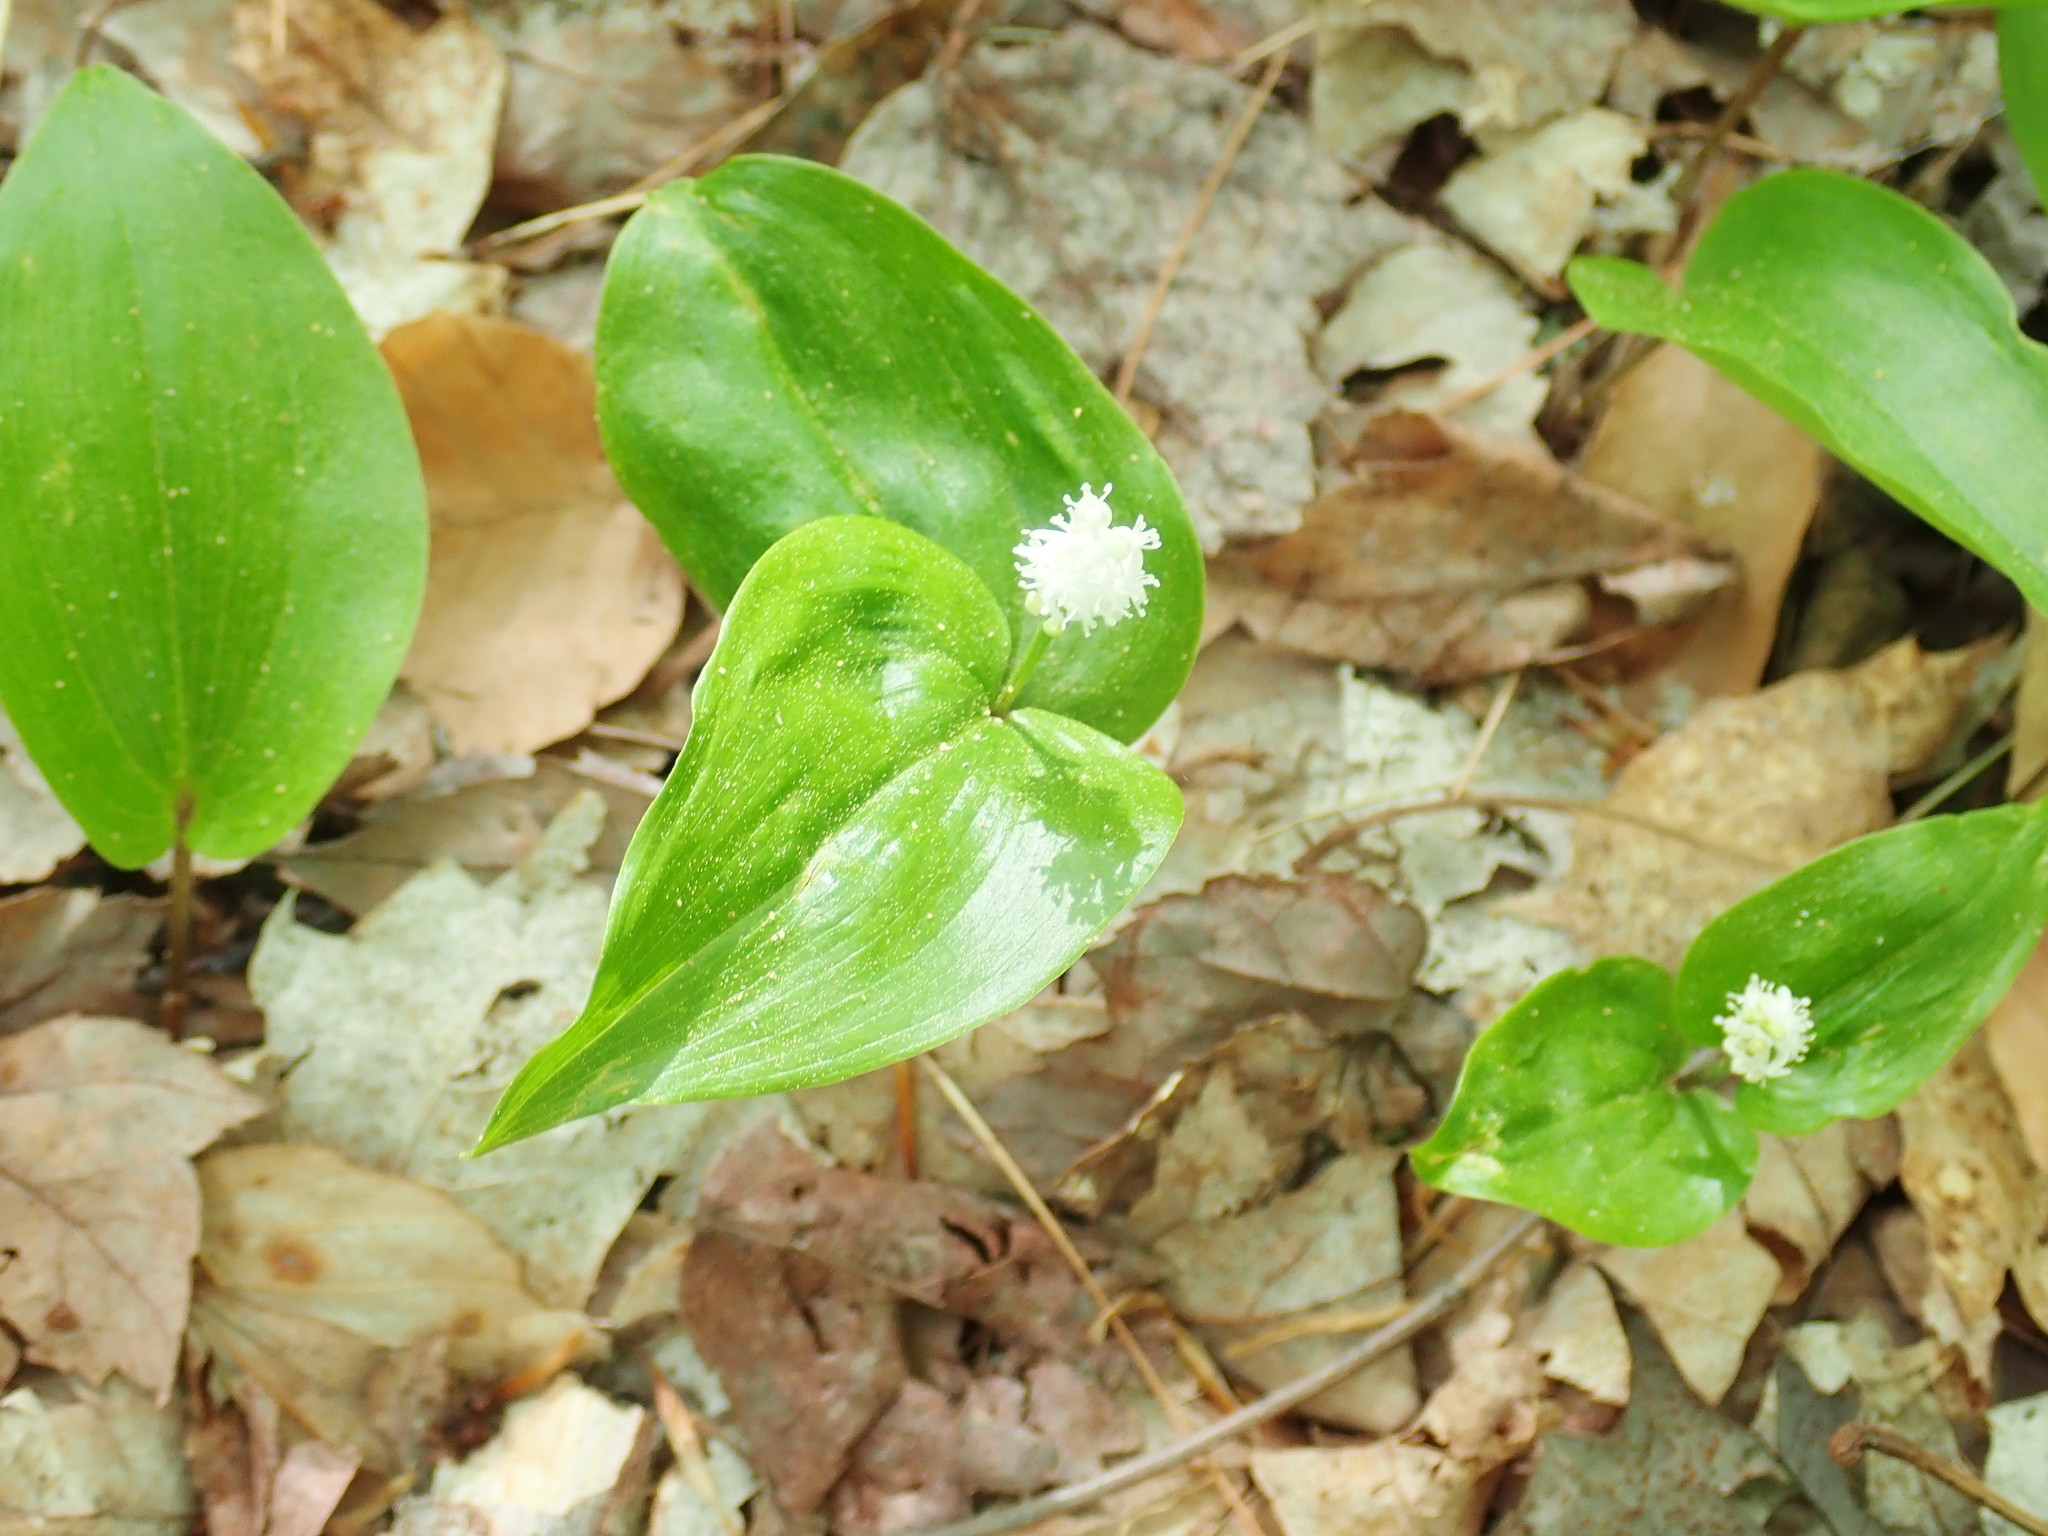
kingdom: Plantae
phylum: Tracheophyta
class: Liliopsida
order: Asparagales
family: Asparagaceae
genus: Maianthemum
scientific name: Maianthemum canadense
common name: False lily-of-the-valley
